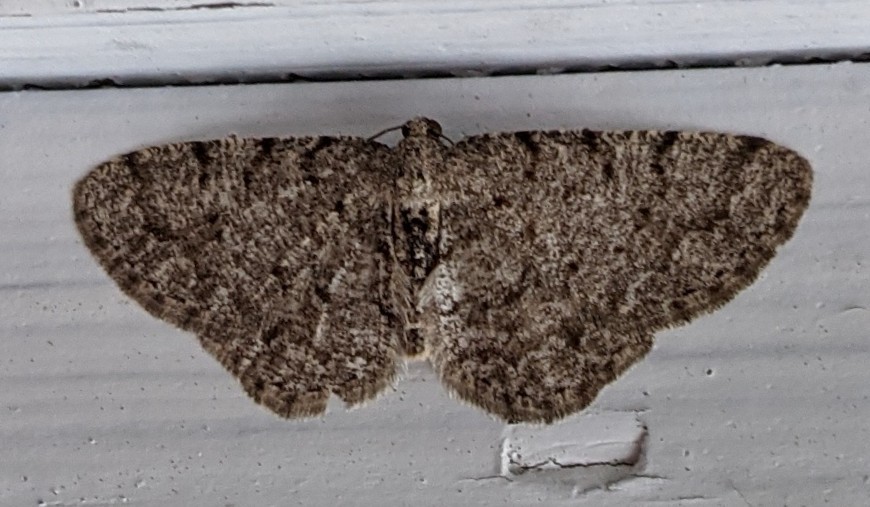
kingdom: Animalia
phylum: Arthropoda
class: Insecta
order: Lepidoptera
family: Geometridae
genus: Aethalura
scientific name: Aethalura intertexta
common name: Four-barred gray
